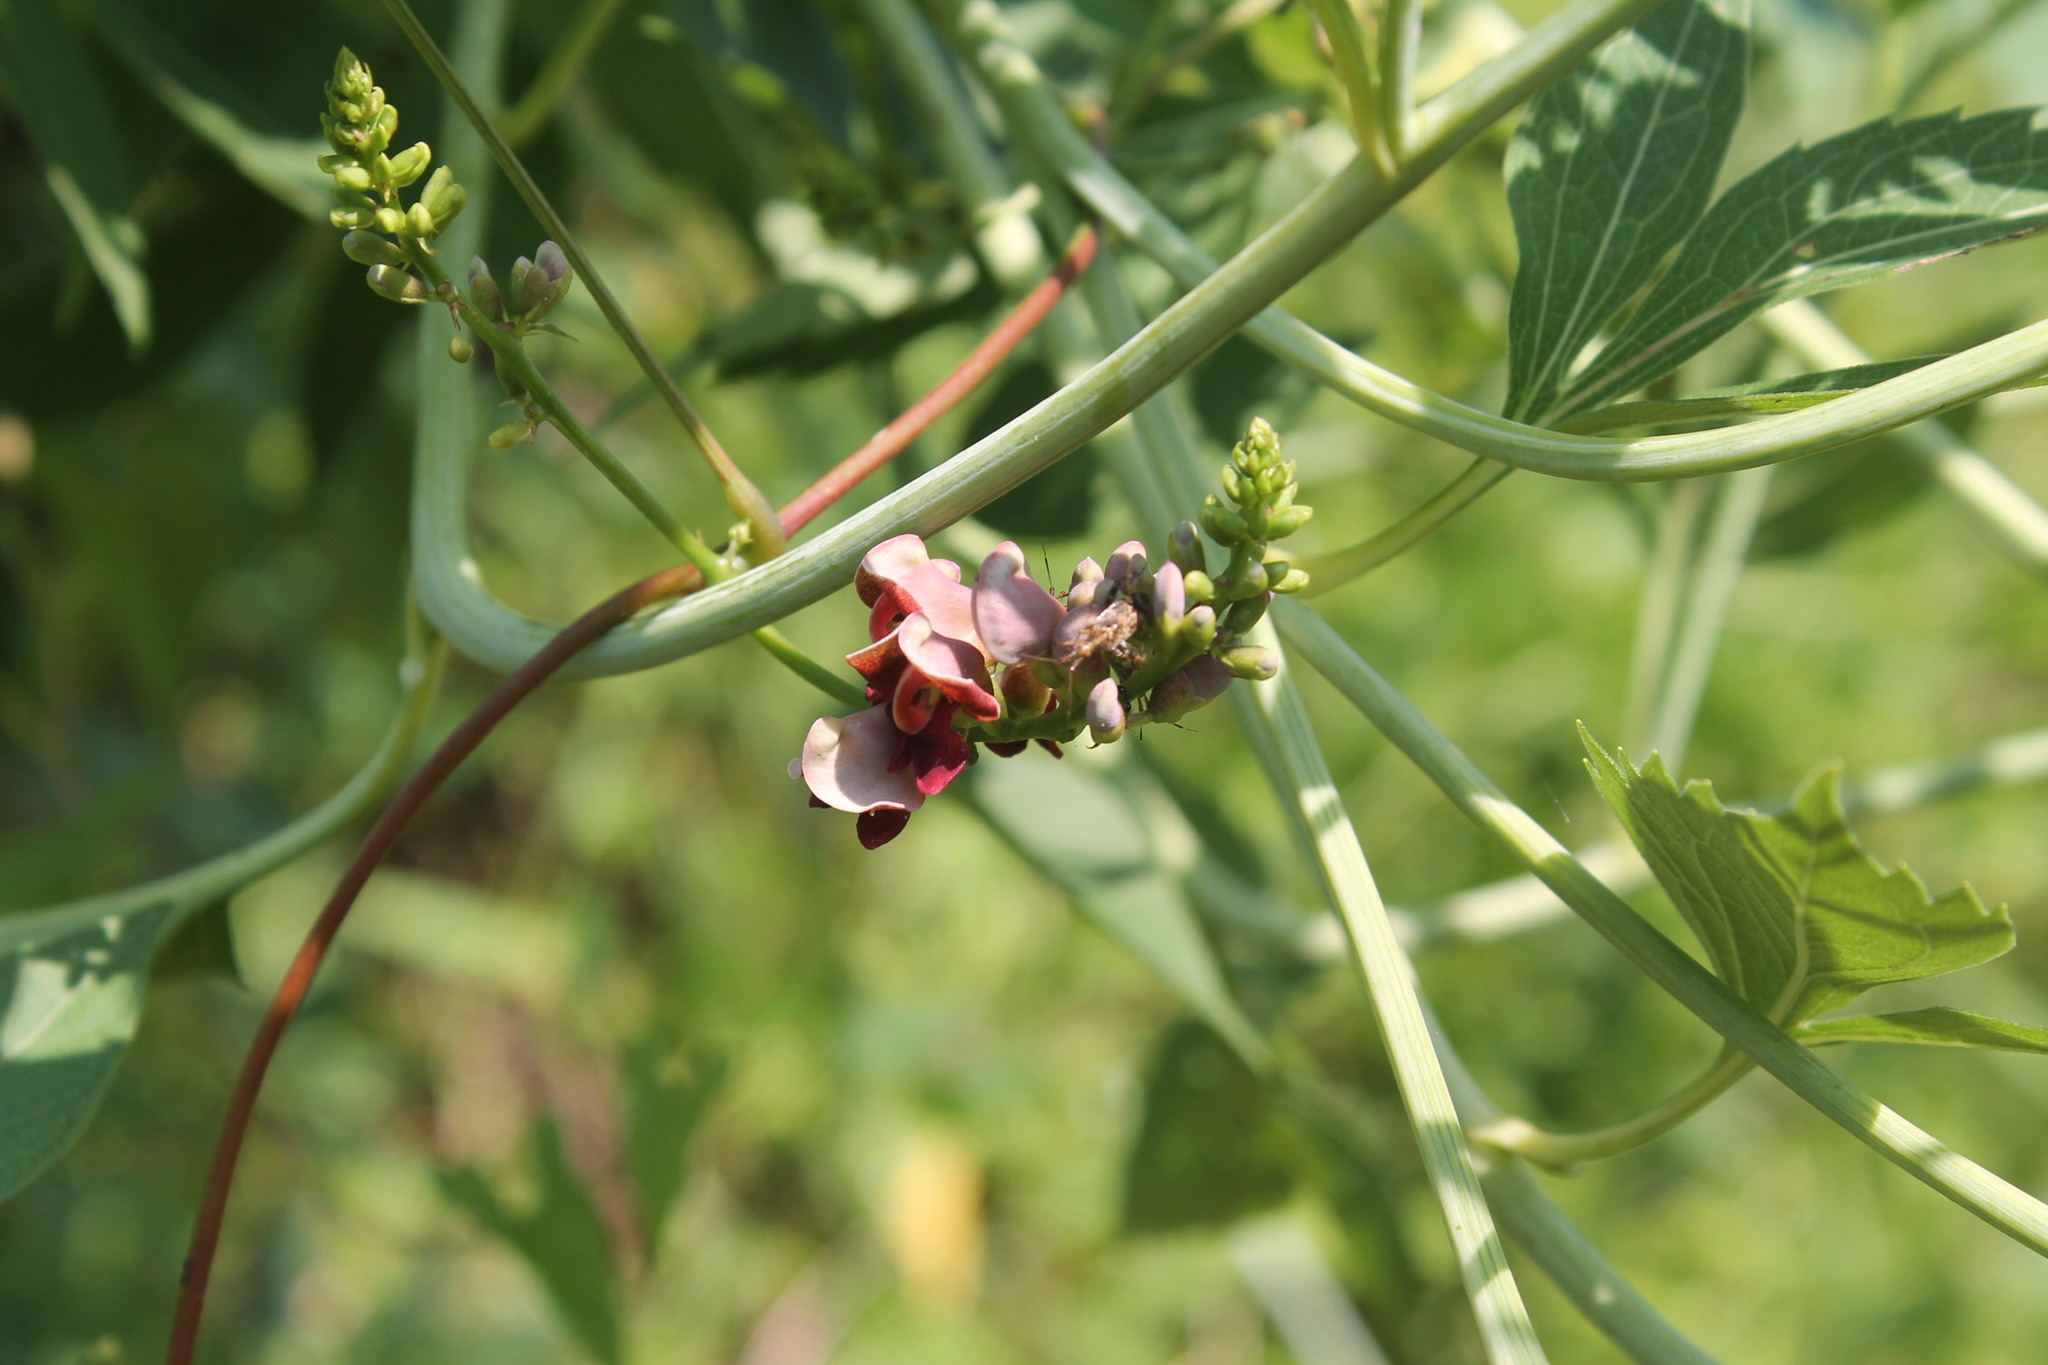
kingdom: Plantae
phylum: Tracheophyta
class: Magnoliopsida
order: Fabales
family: Fabaceae
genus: Apios
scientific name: Apios americana
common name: American potato-bean
